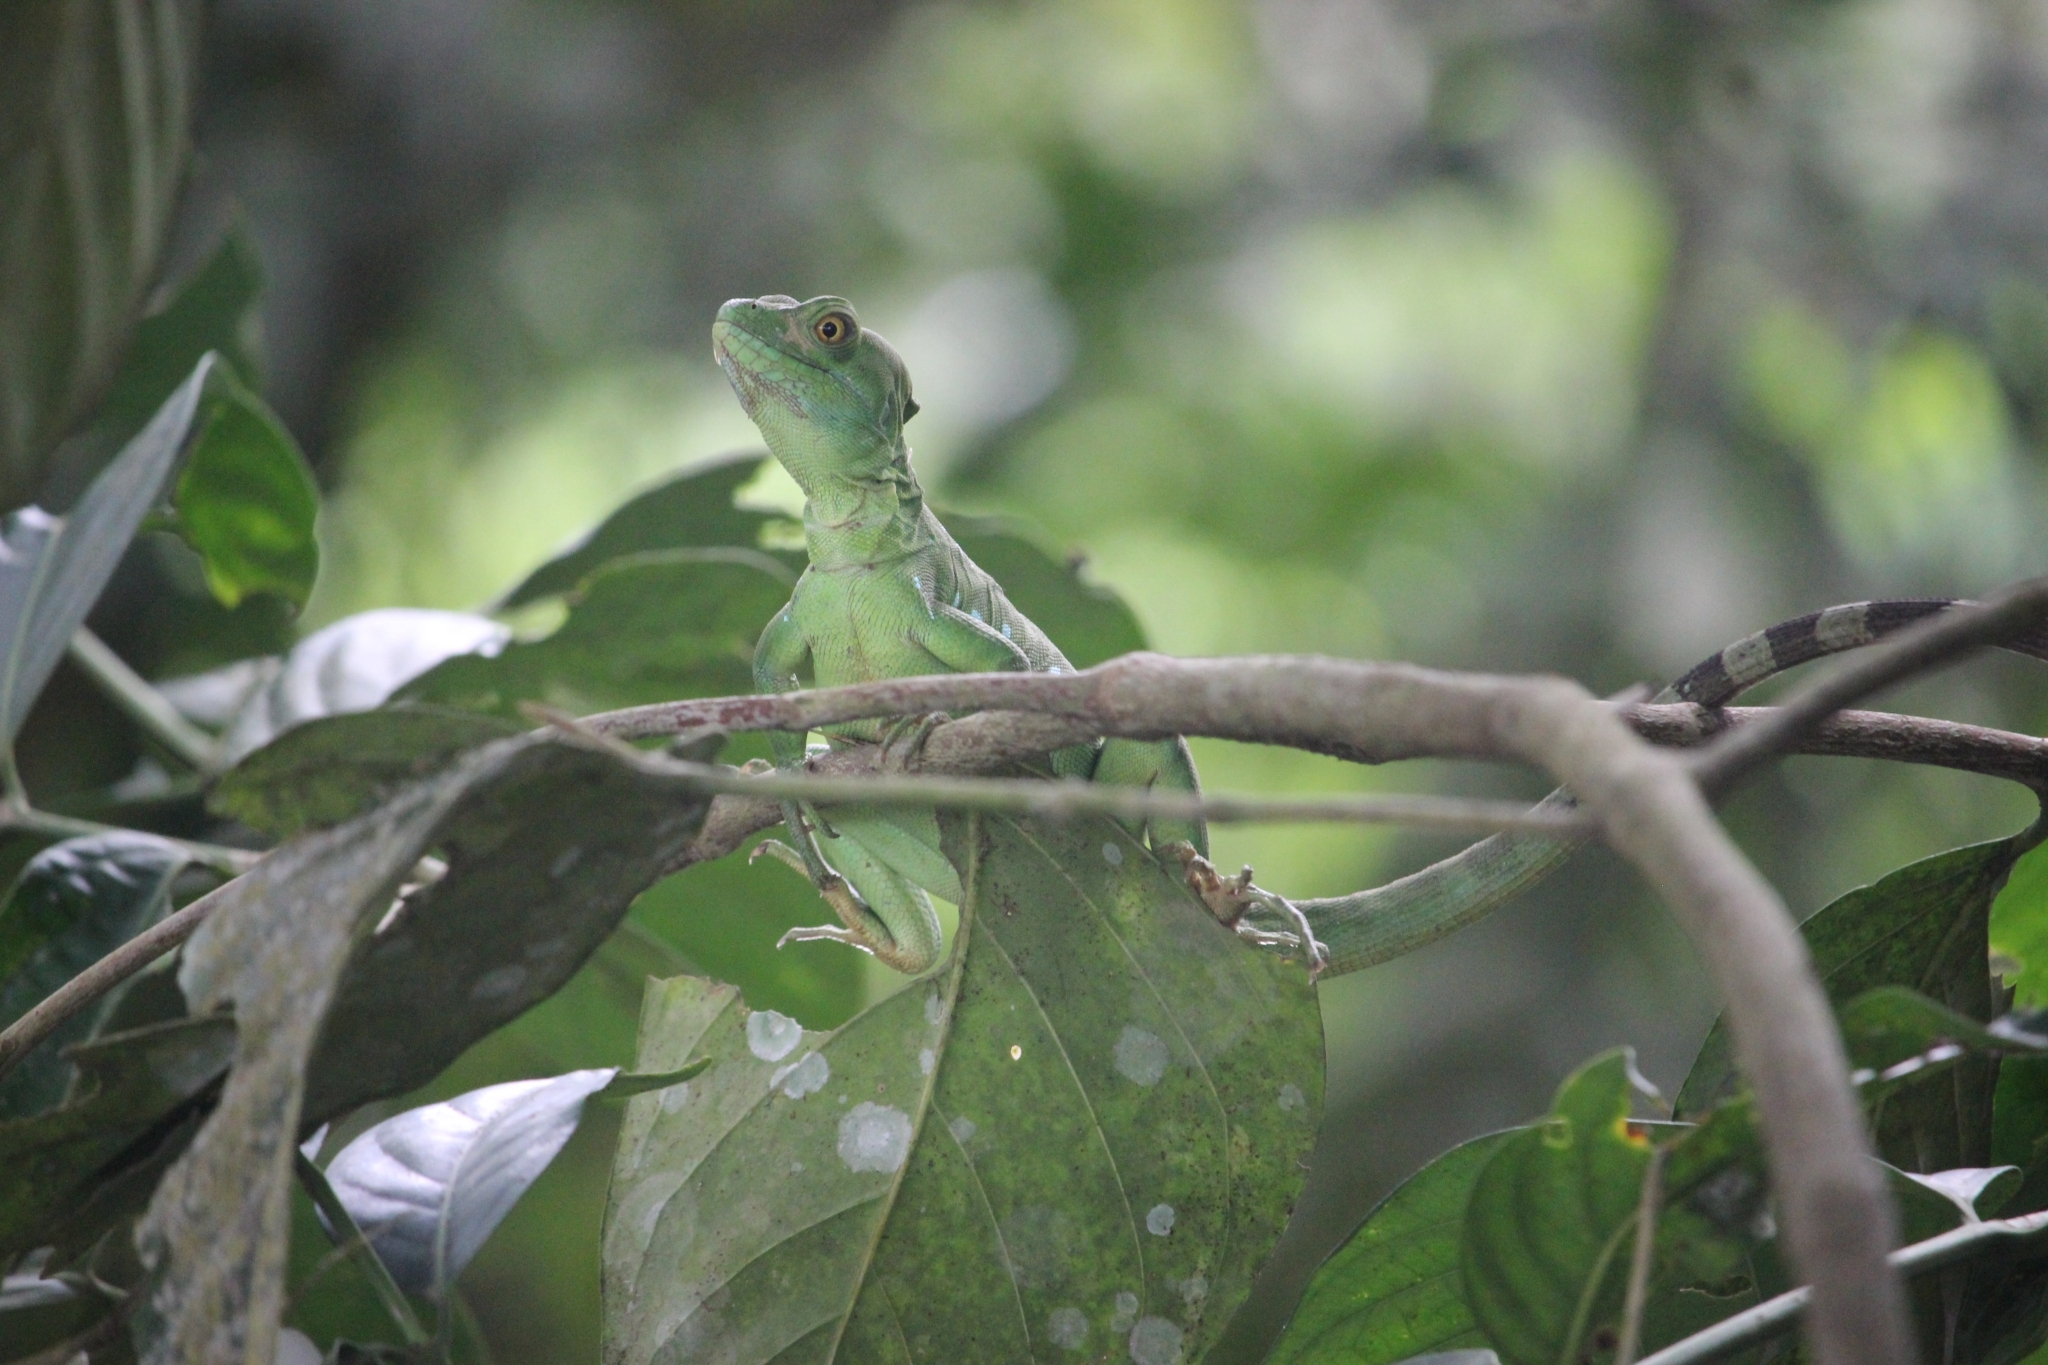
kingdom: Animalia
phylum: Chordata
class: Squamata
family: Corytophanidae
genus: Basiliscus
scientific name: Basiliscus plumifrons
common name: Green basilisk
